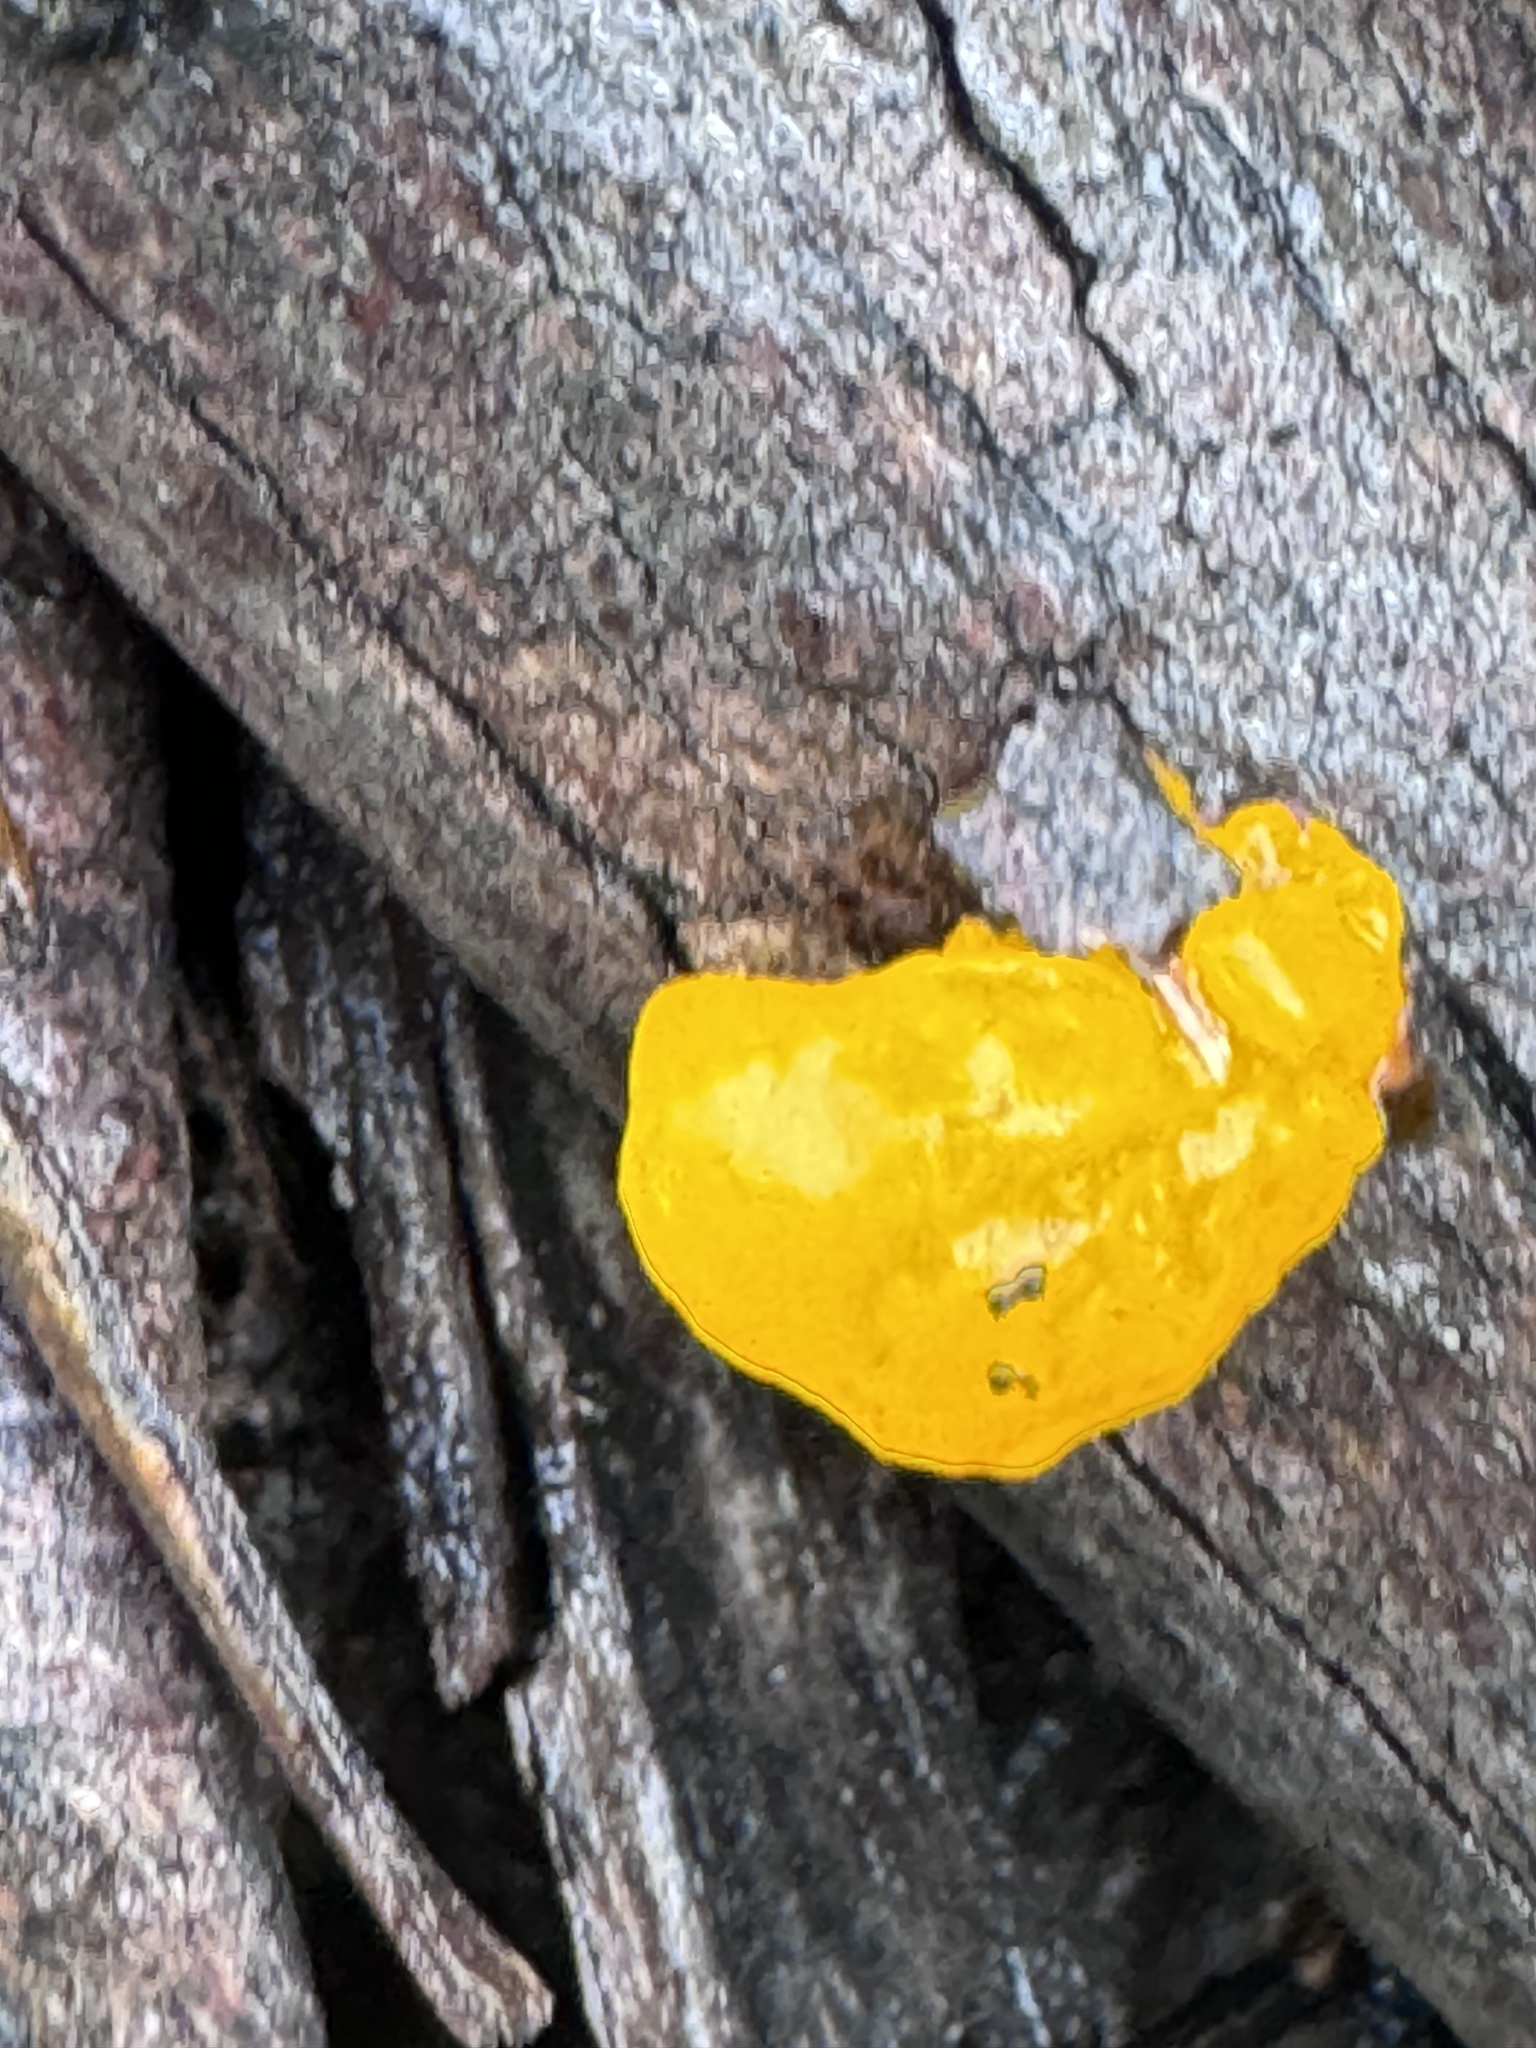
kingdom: Fungi
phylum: Basidiomycota
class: Tremellomycetes
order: Tremellales
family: Tremellaceae
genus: Tremella
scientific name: Tremella mesenterica
